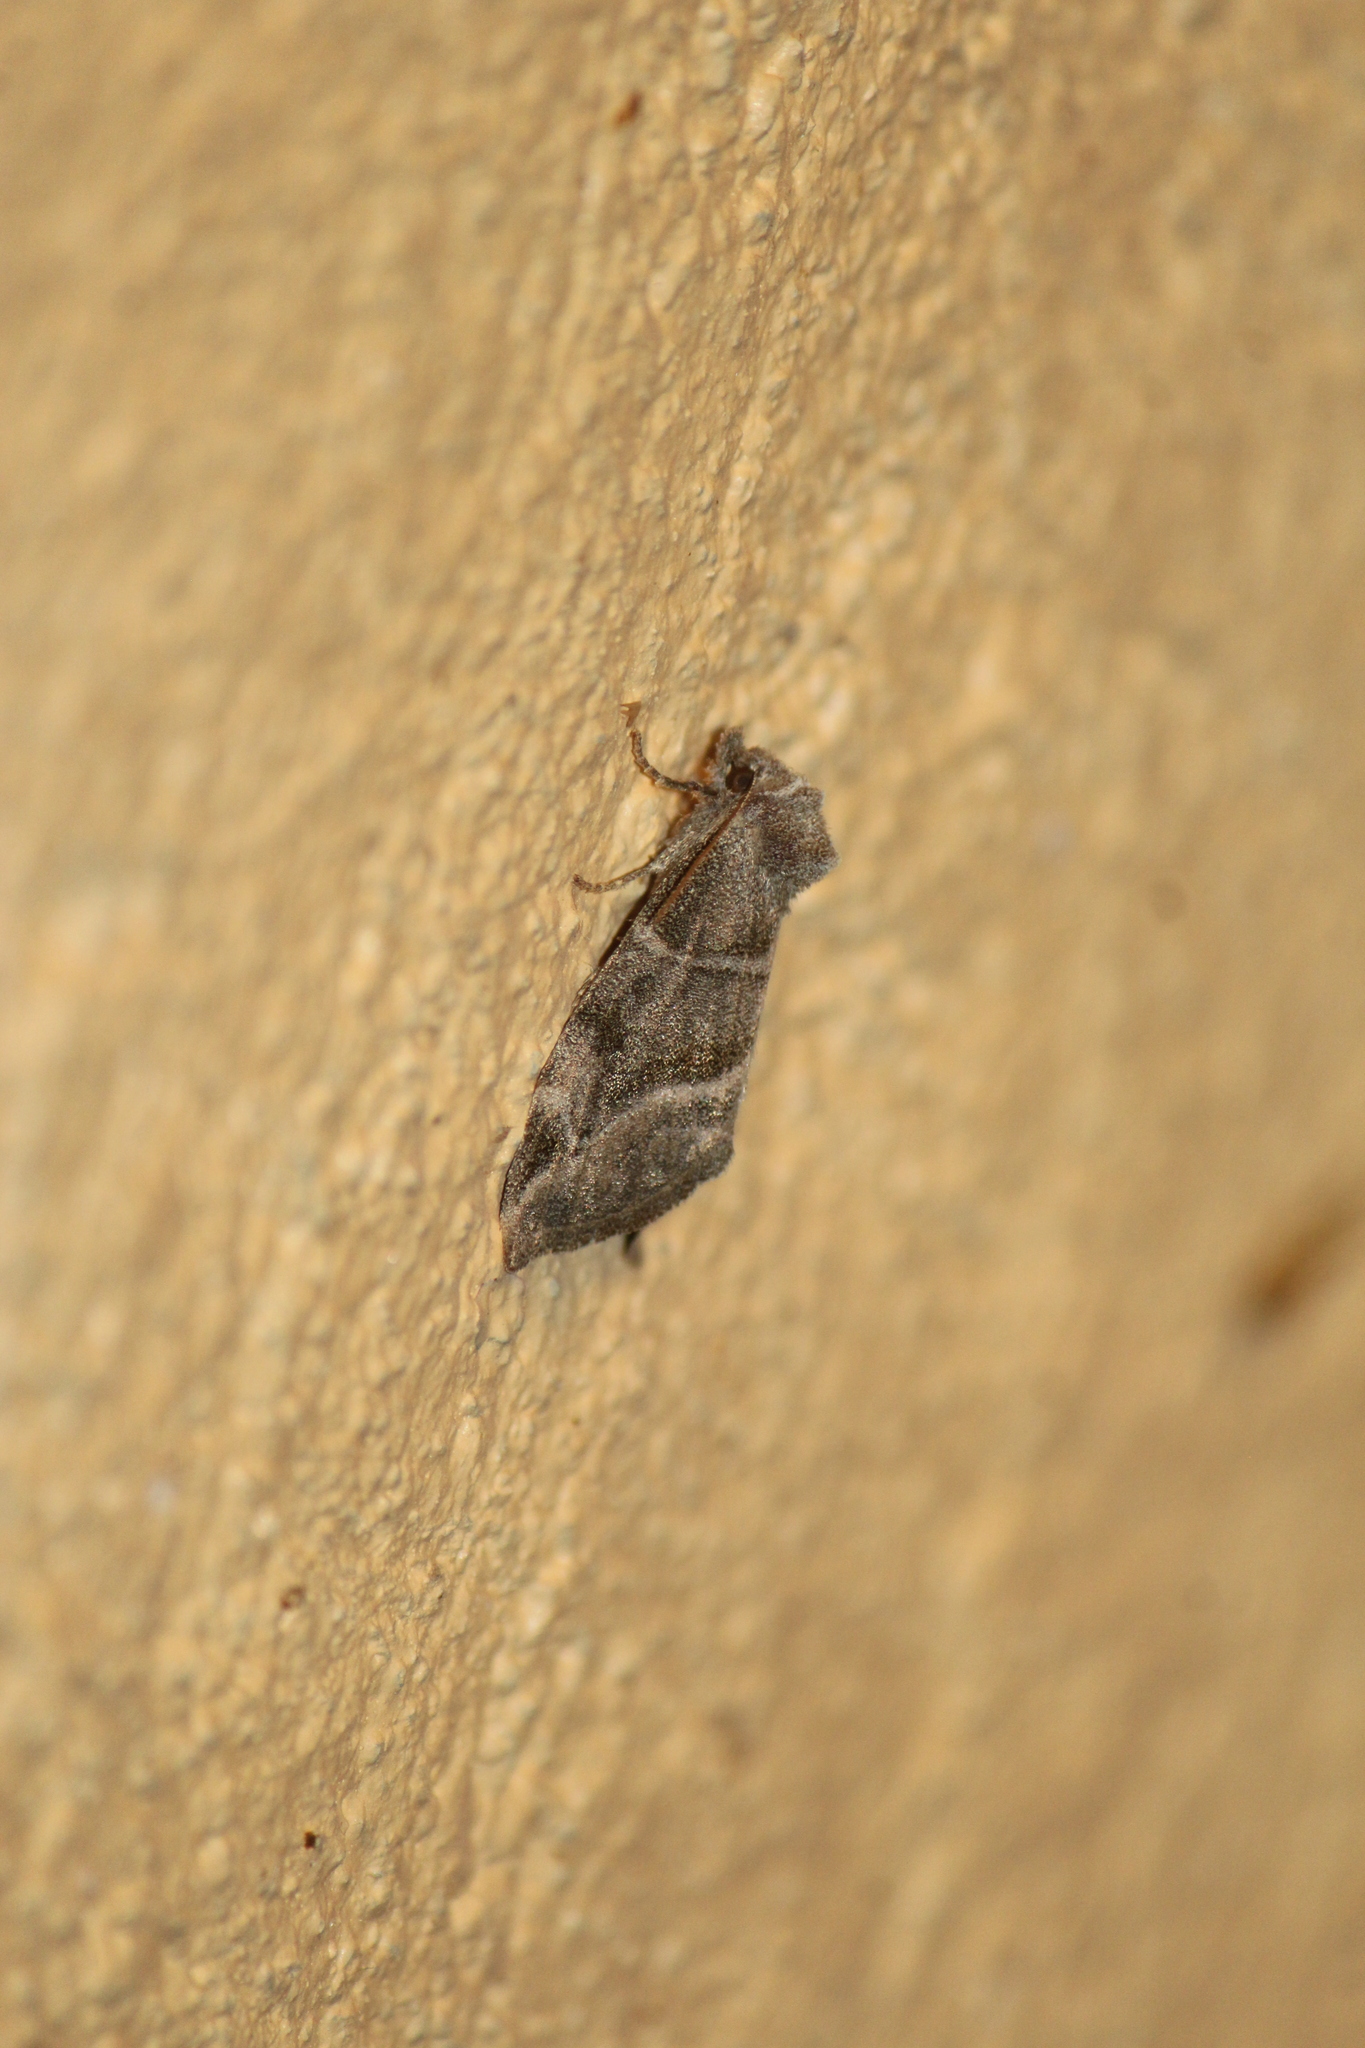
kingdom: Animalia
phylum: Arthropoda
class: Insecta
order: Lepidoptera
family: Noctuidae
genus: Plagiomimicus
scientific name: Plagiomimicus
